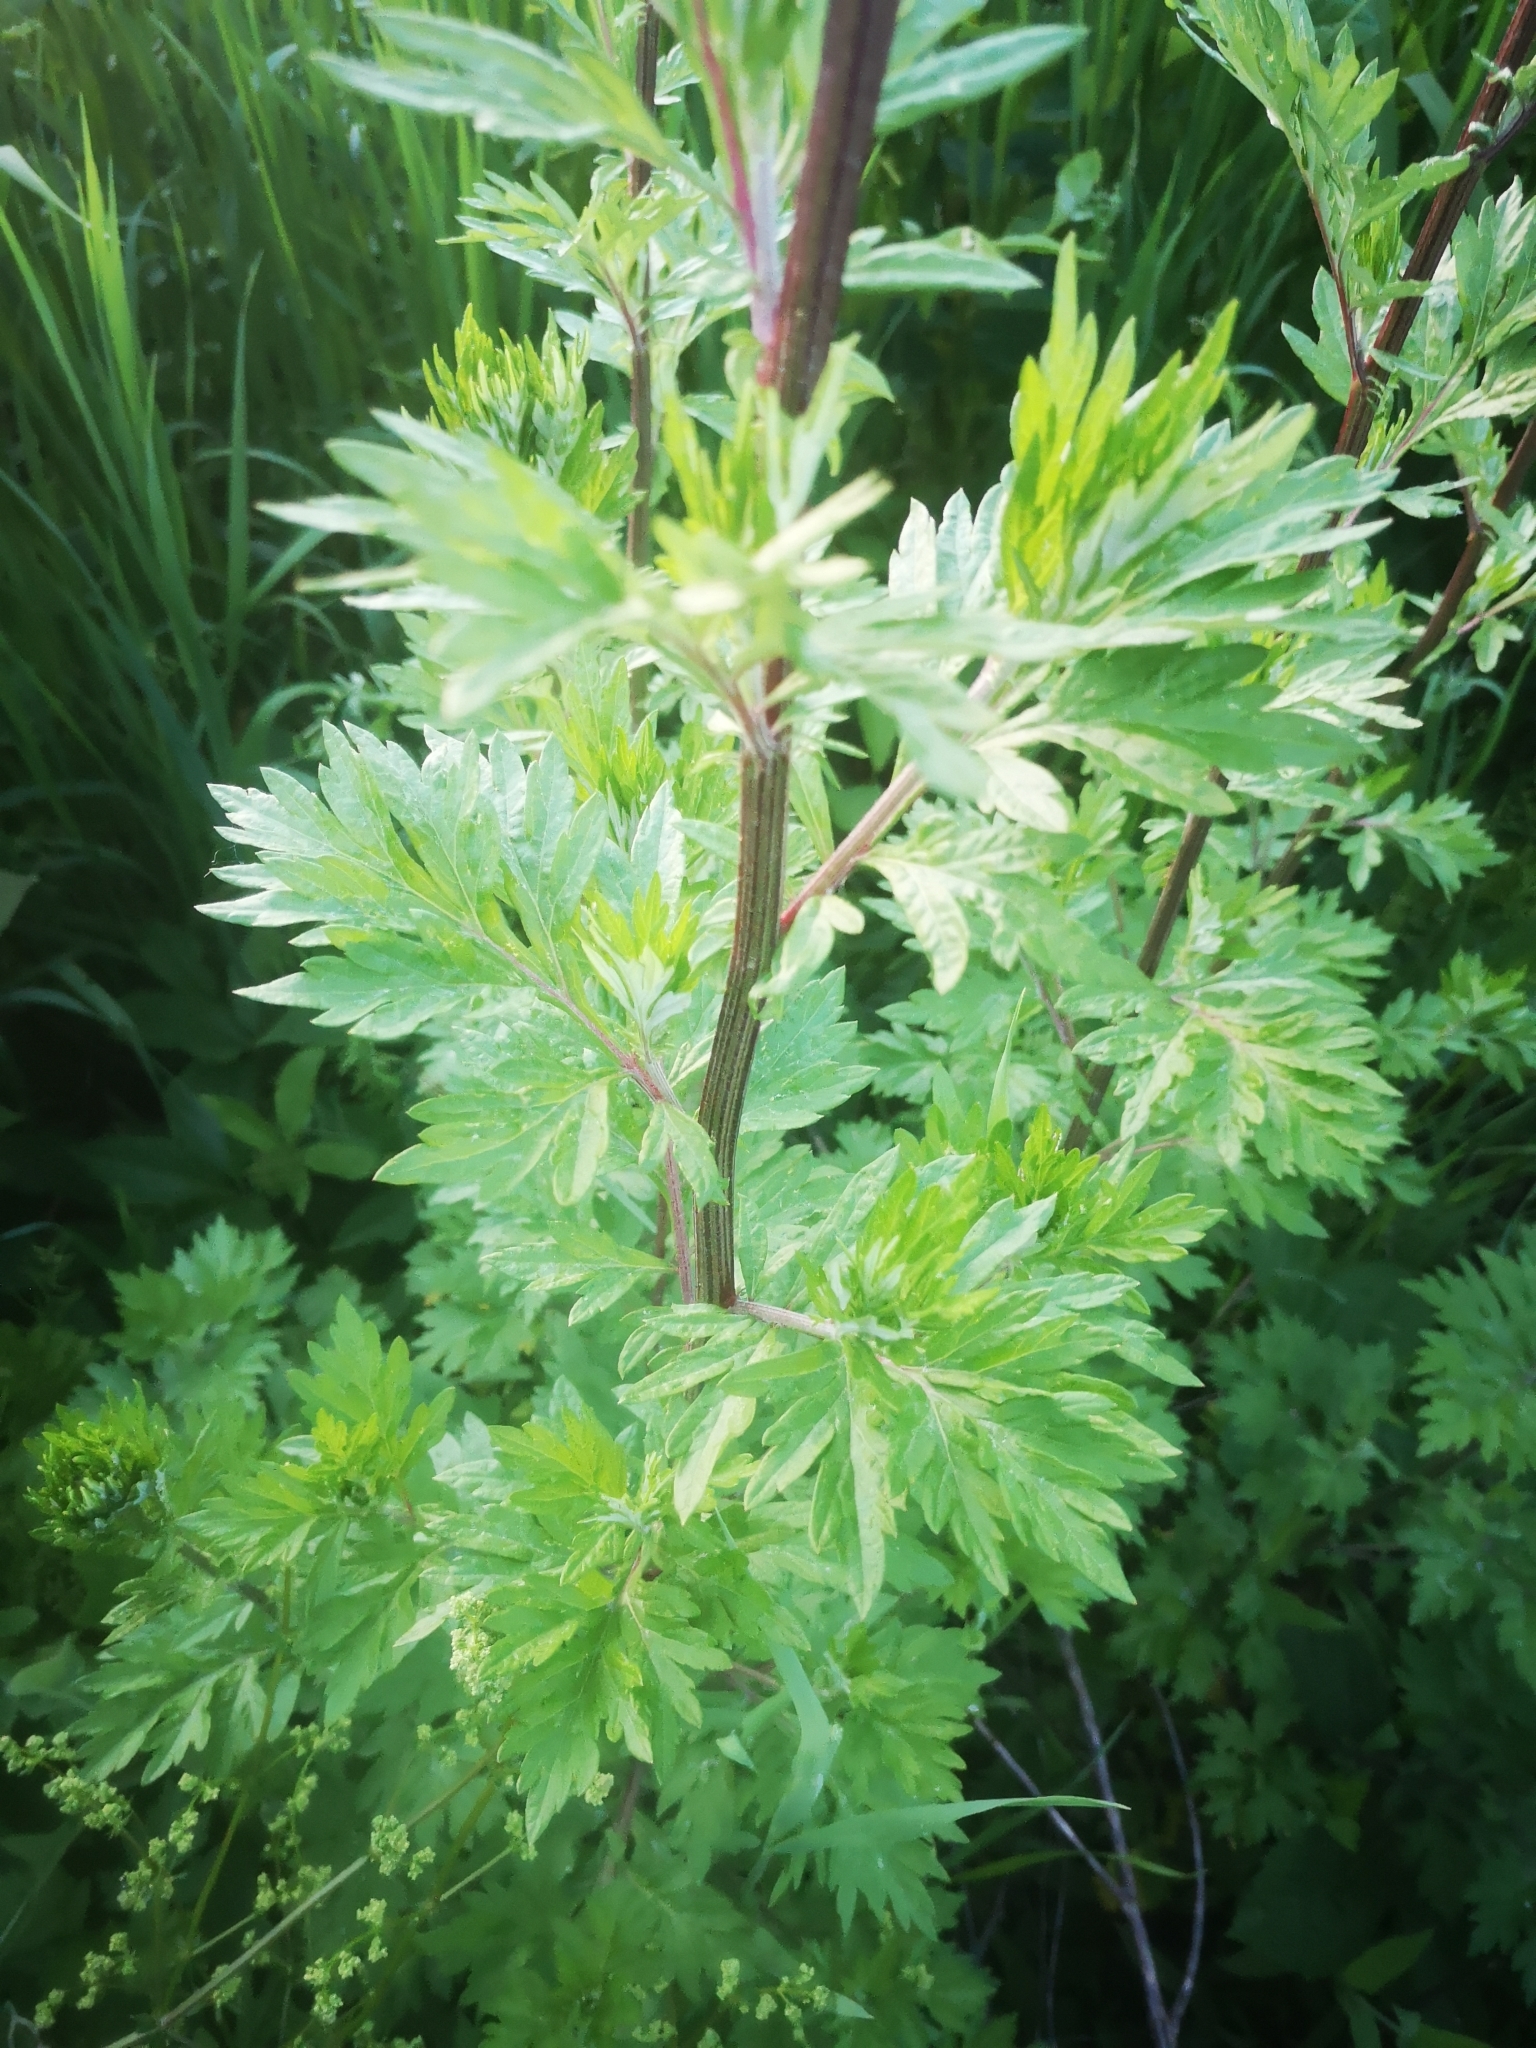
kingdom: Plantae
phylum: Tracheophyta
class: Magnoliopsida
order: Asterales
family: Asteraceae
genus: Artemisia
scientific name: Artemisia vulgaris
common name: Mugwort
